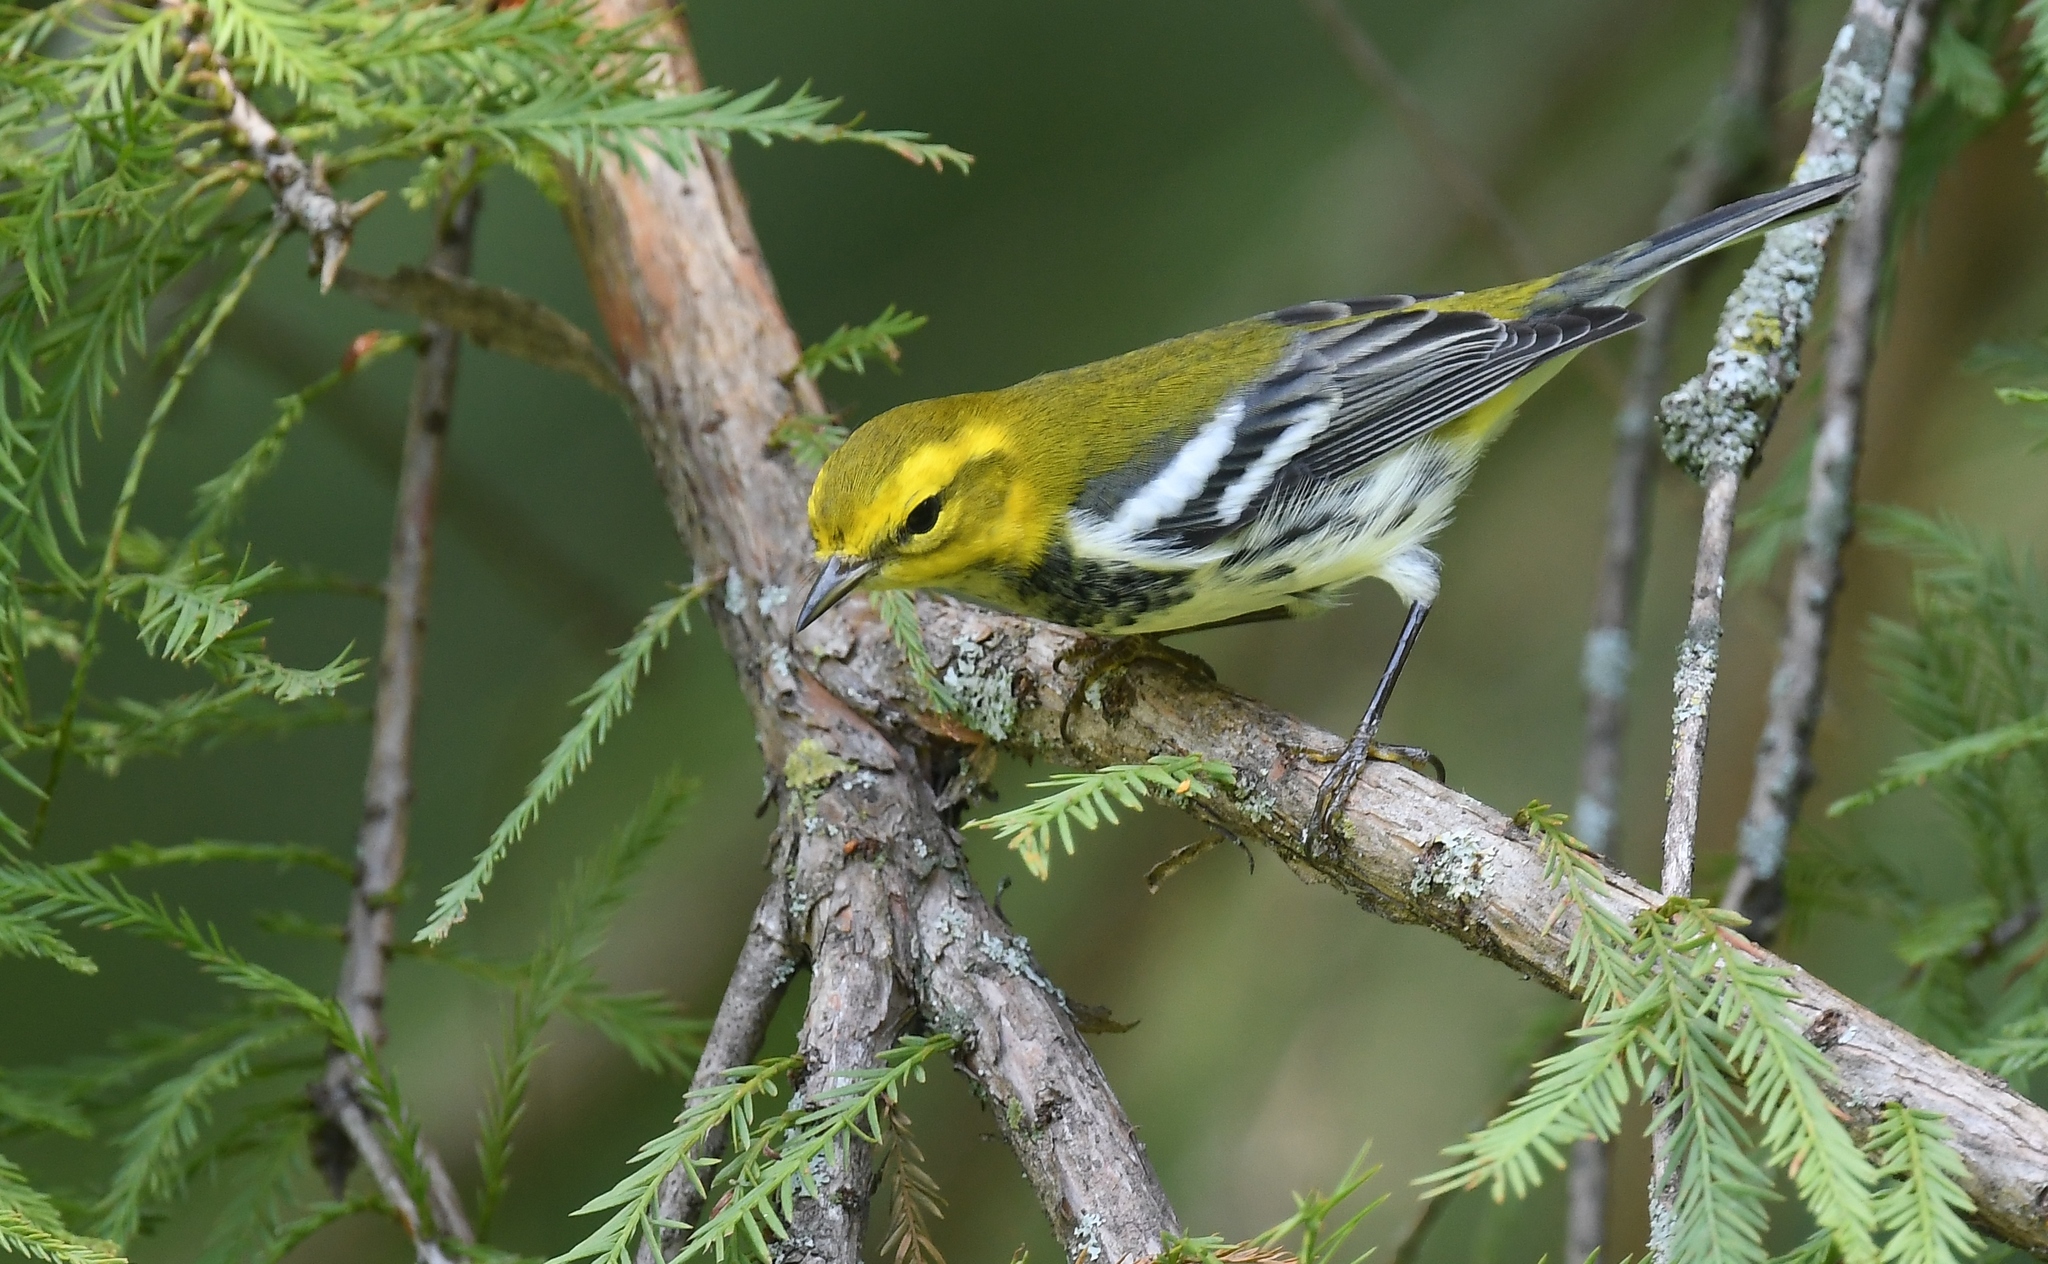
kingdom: Animalia
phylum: Chordata
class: Aves
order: Passeriformes
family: Parulidae
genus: Setophaga
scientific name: Setophaga virens
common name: Black-throated green warbler
